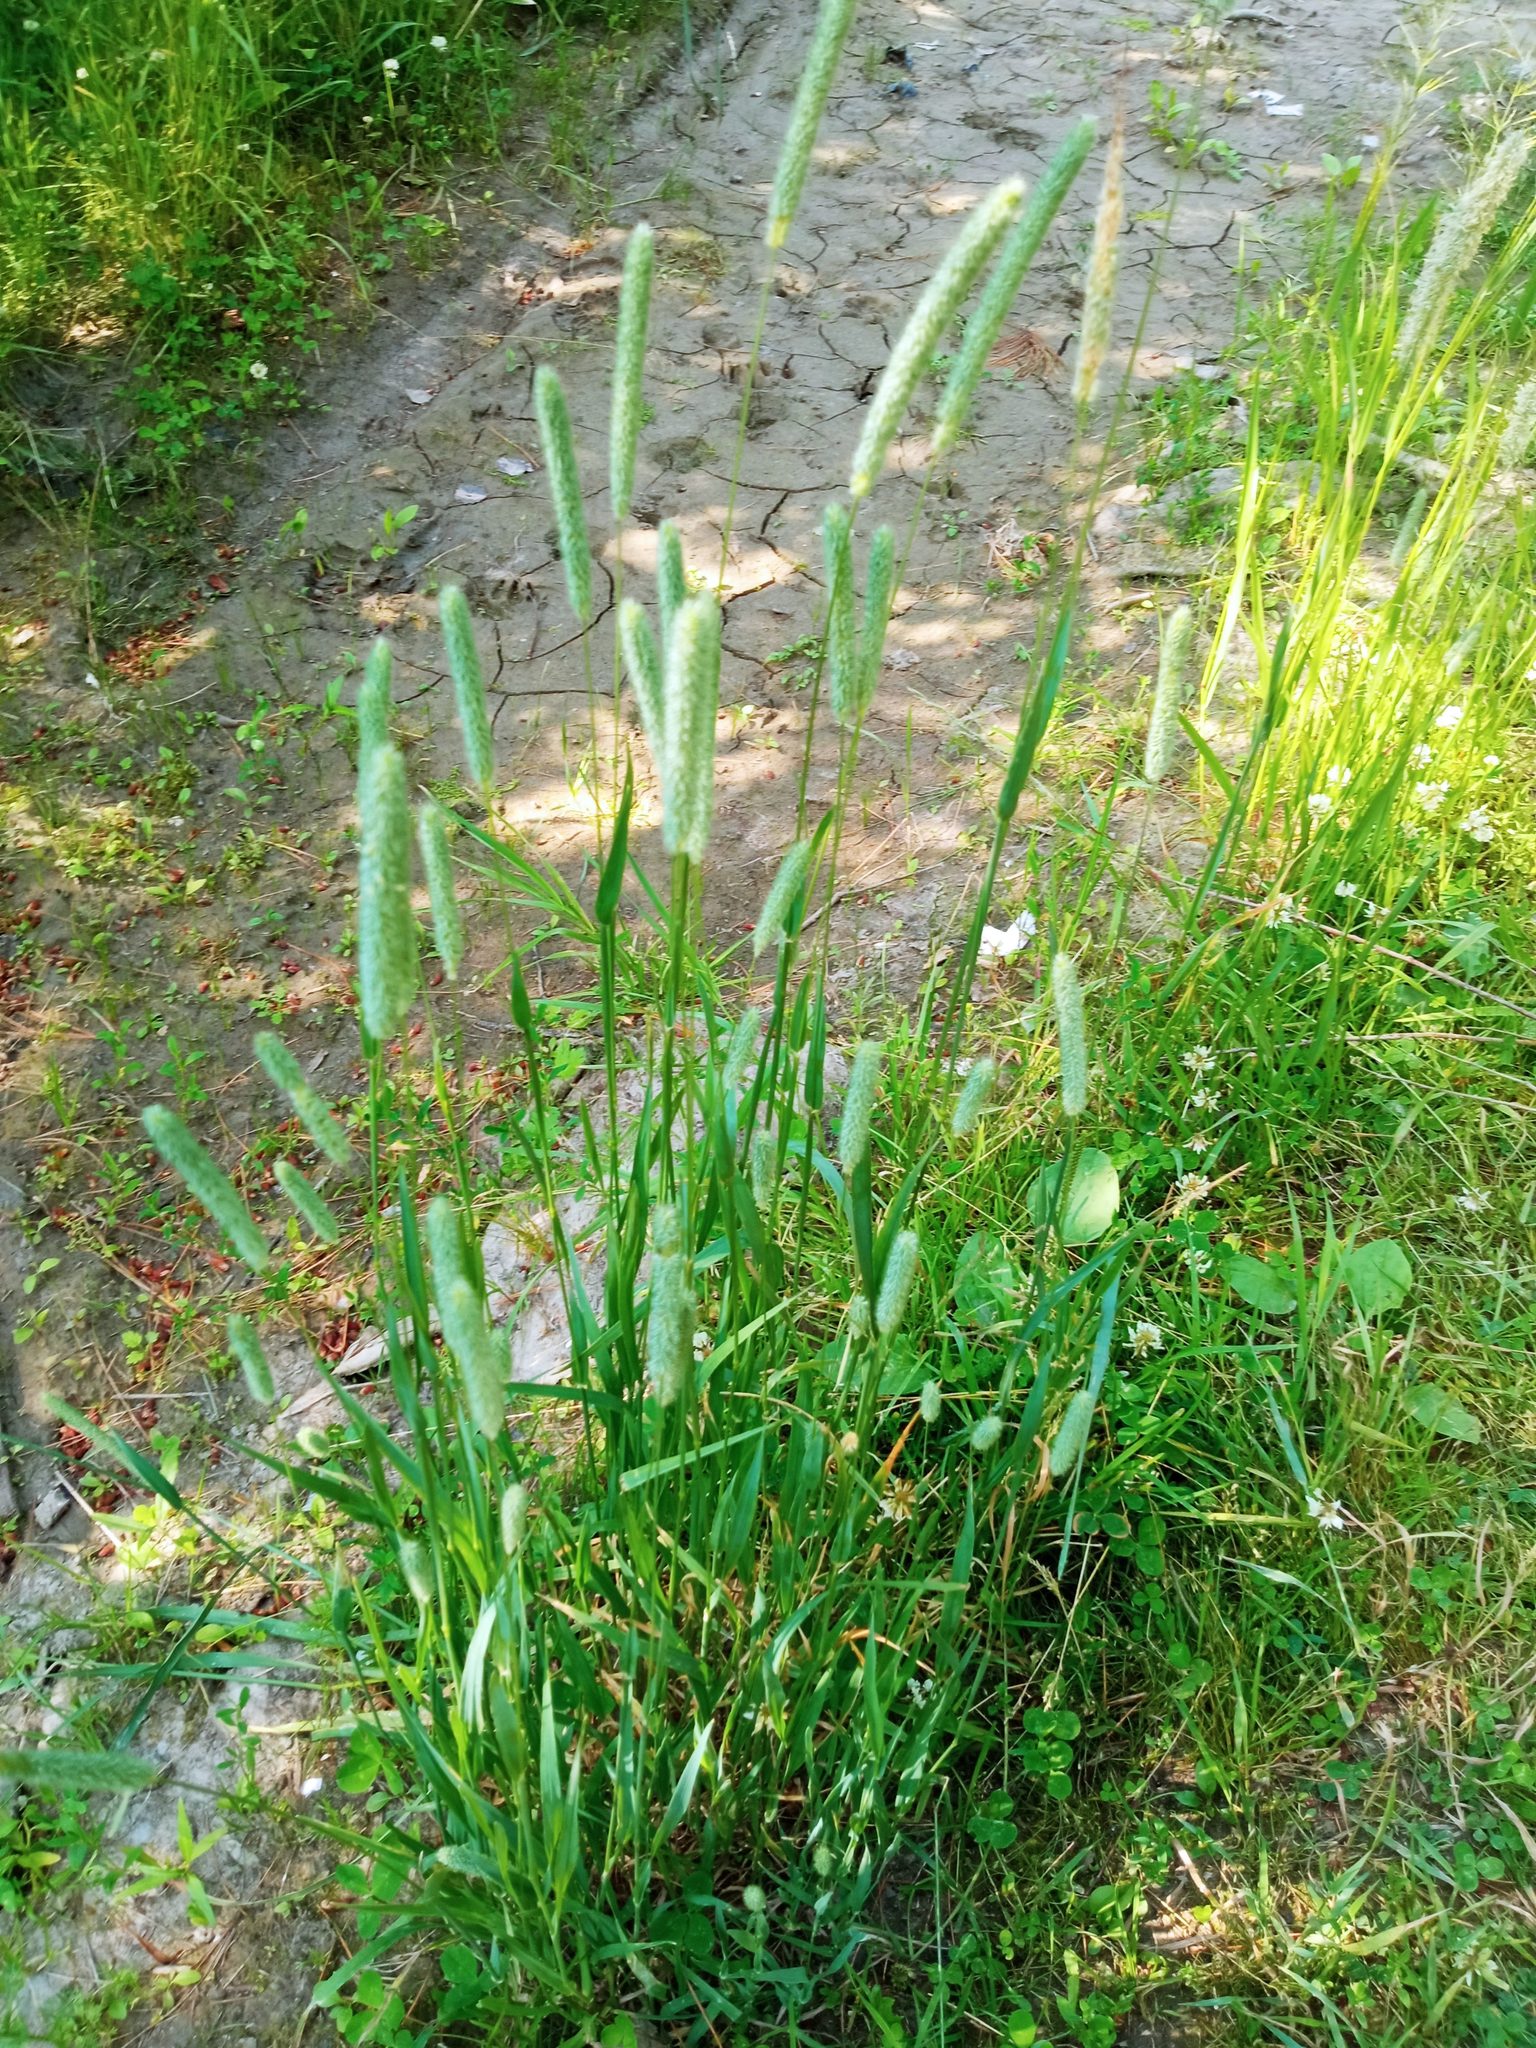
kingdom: Plantae
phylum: Tracheophyta
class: Liliopsida
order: Poales
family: Poaceae
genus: Phleum
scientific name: Phleum pratense
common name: Timothy grass
